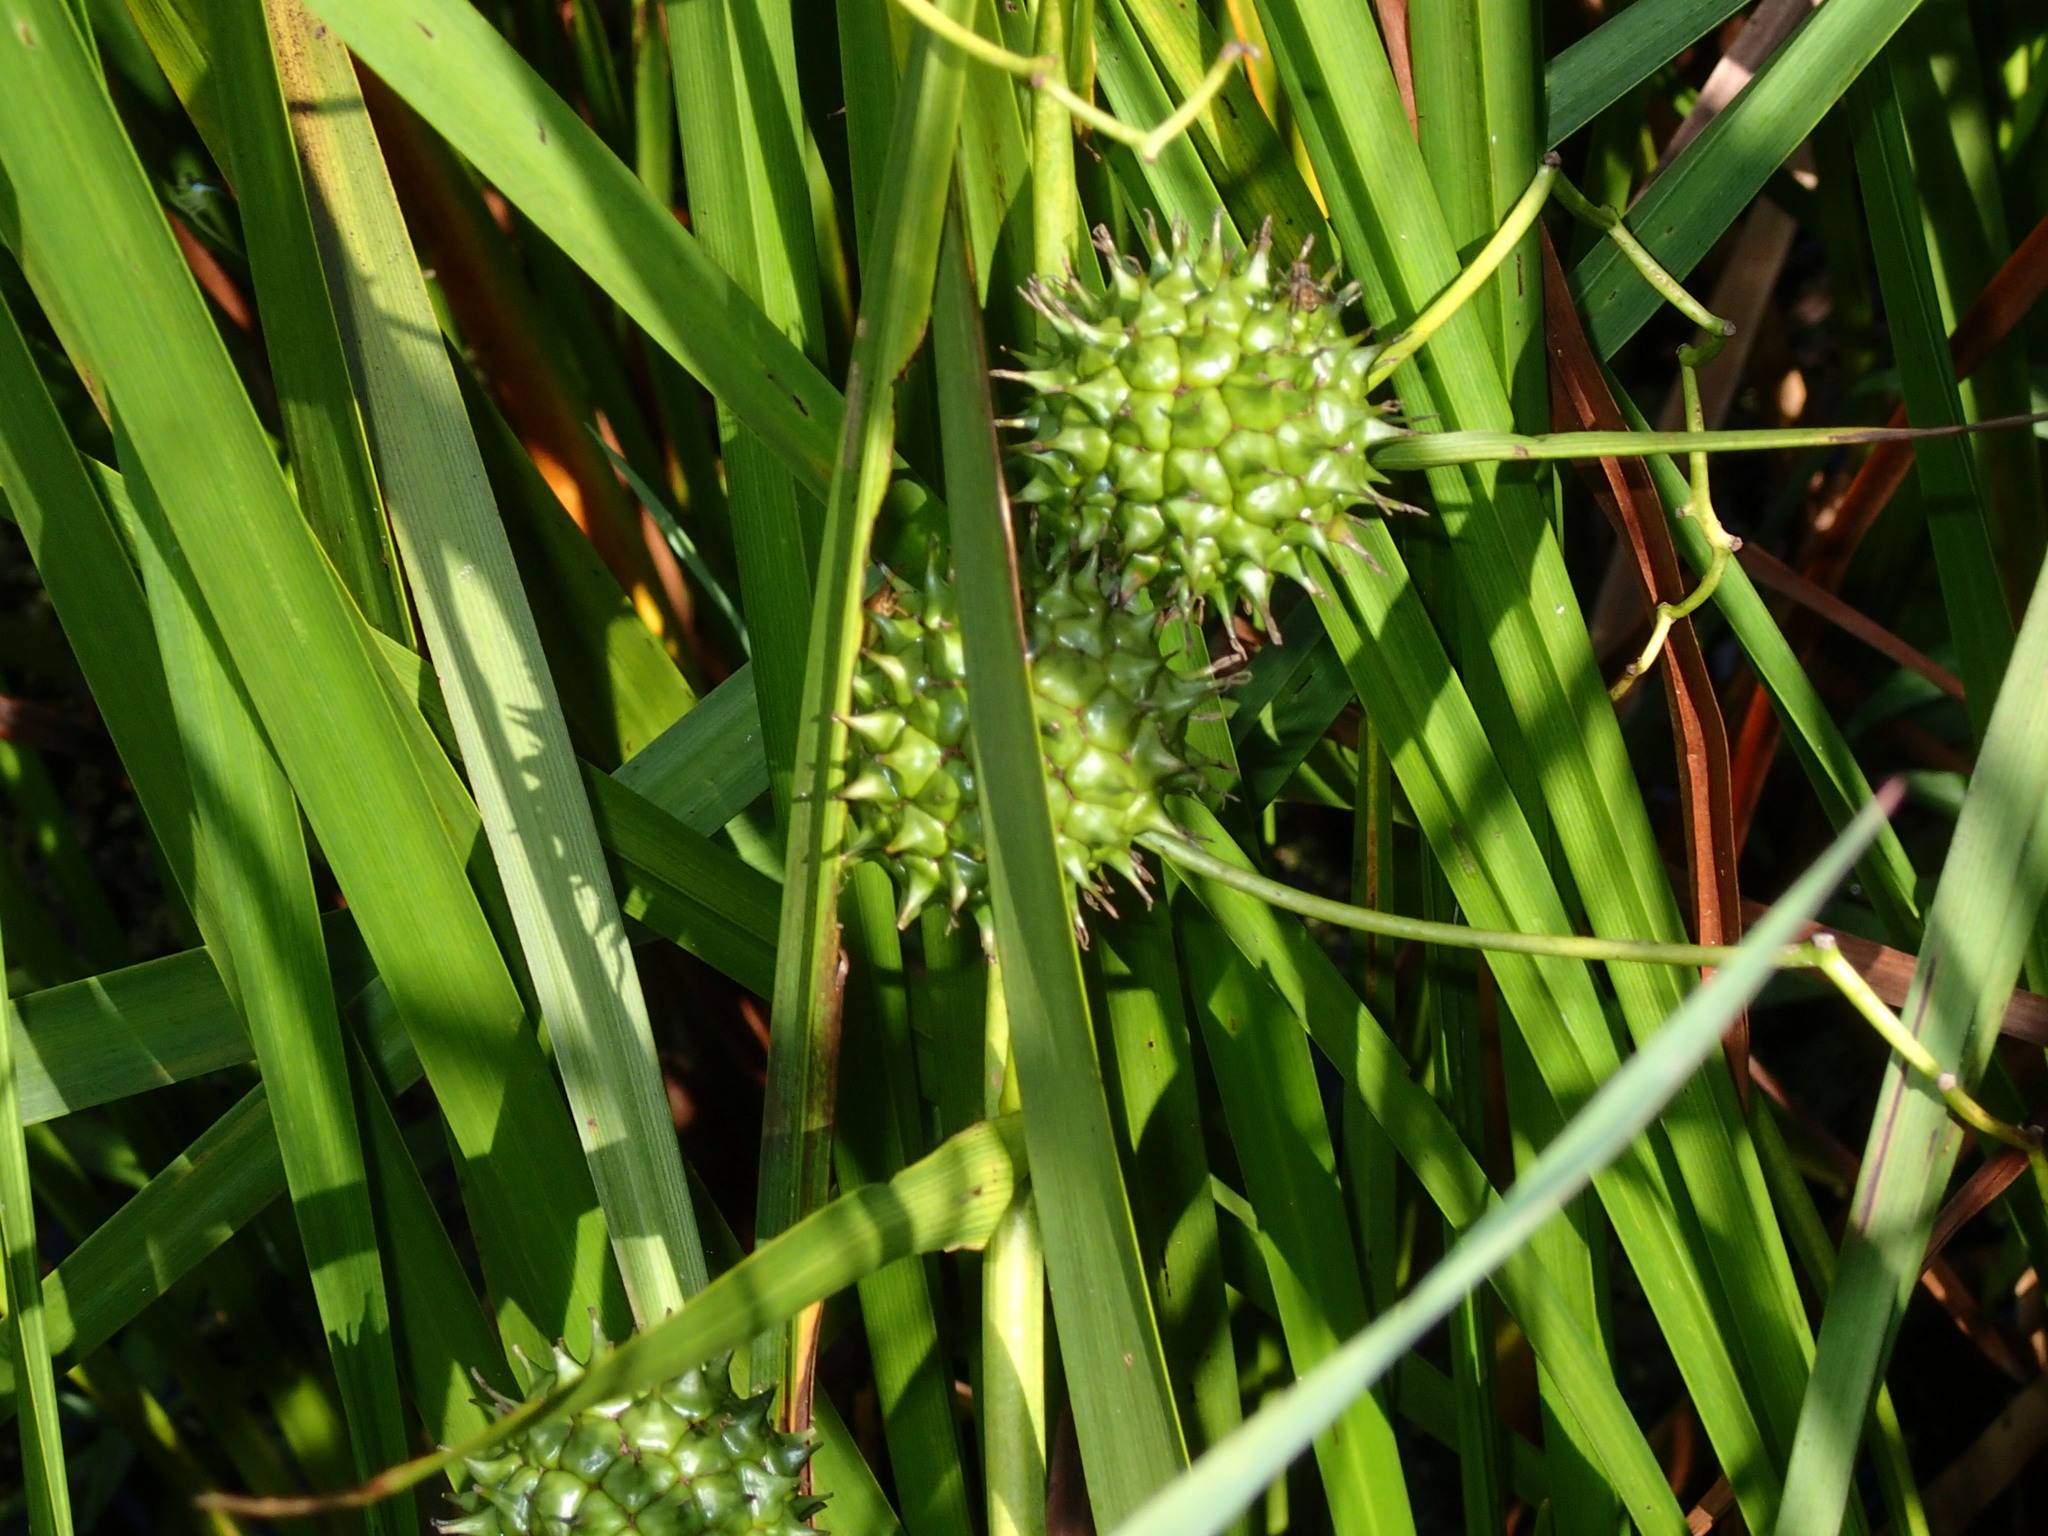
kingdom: Plantae
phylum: Tracheophyta
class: Liliopsida
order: Poales
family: Typhaceae
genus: Sparganium
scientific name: Sparganium eurycarpum
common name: Broad-fruited burreed
